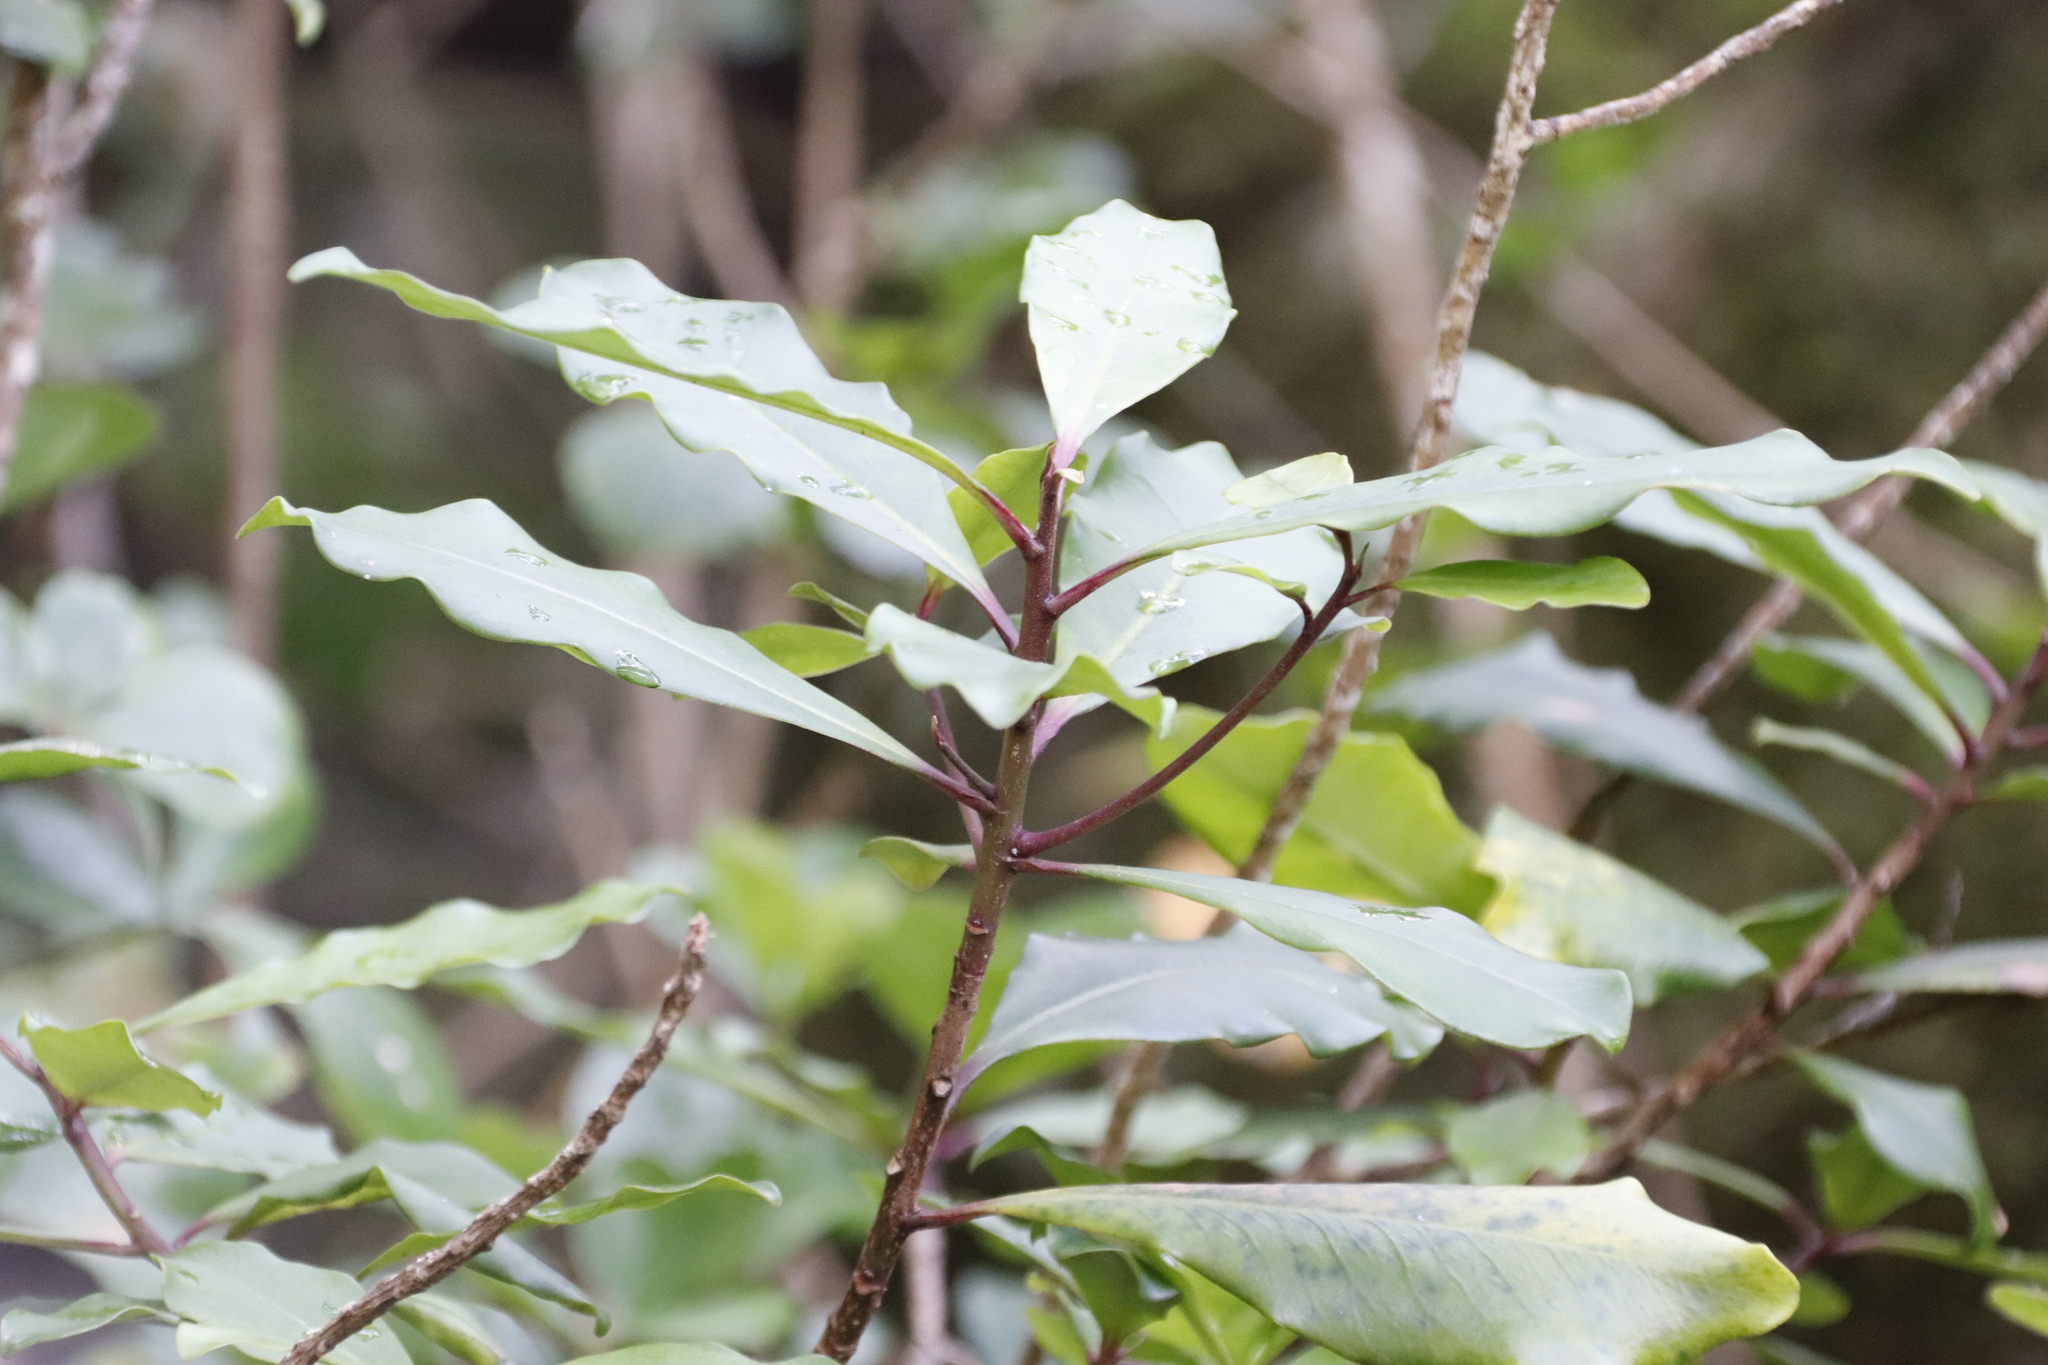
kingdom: Plantae
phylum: Tracheophyta
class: Magnoliopsida
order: Ericales
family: Primulaceae
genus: Myrsine
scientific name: Myrsine melanophloeos
